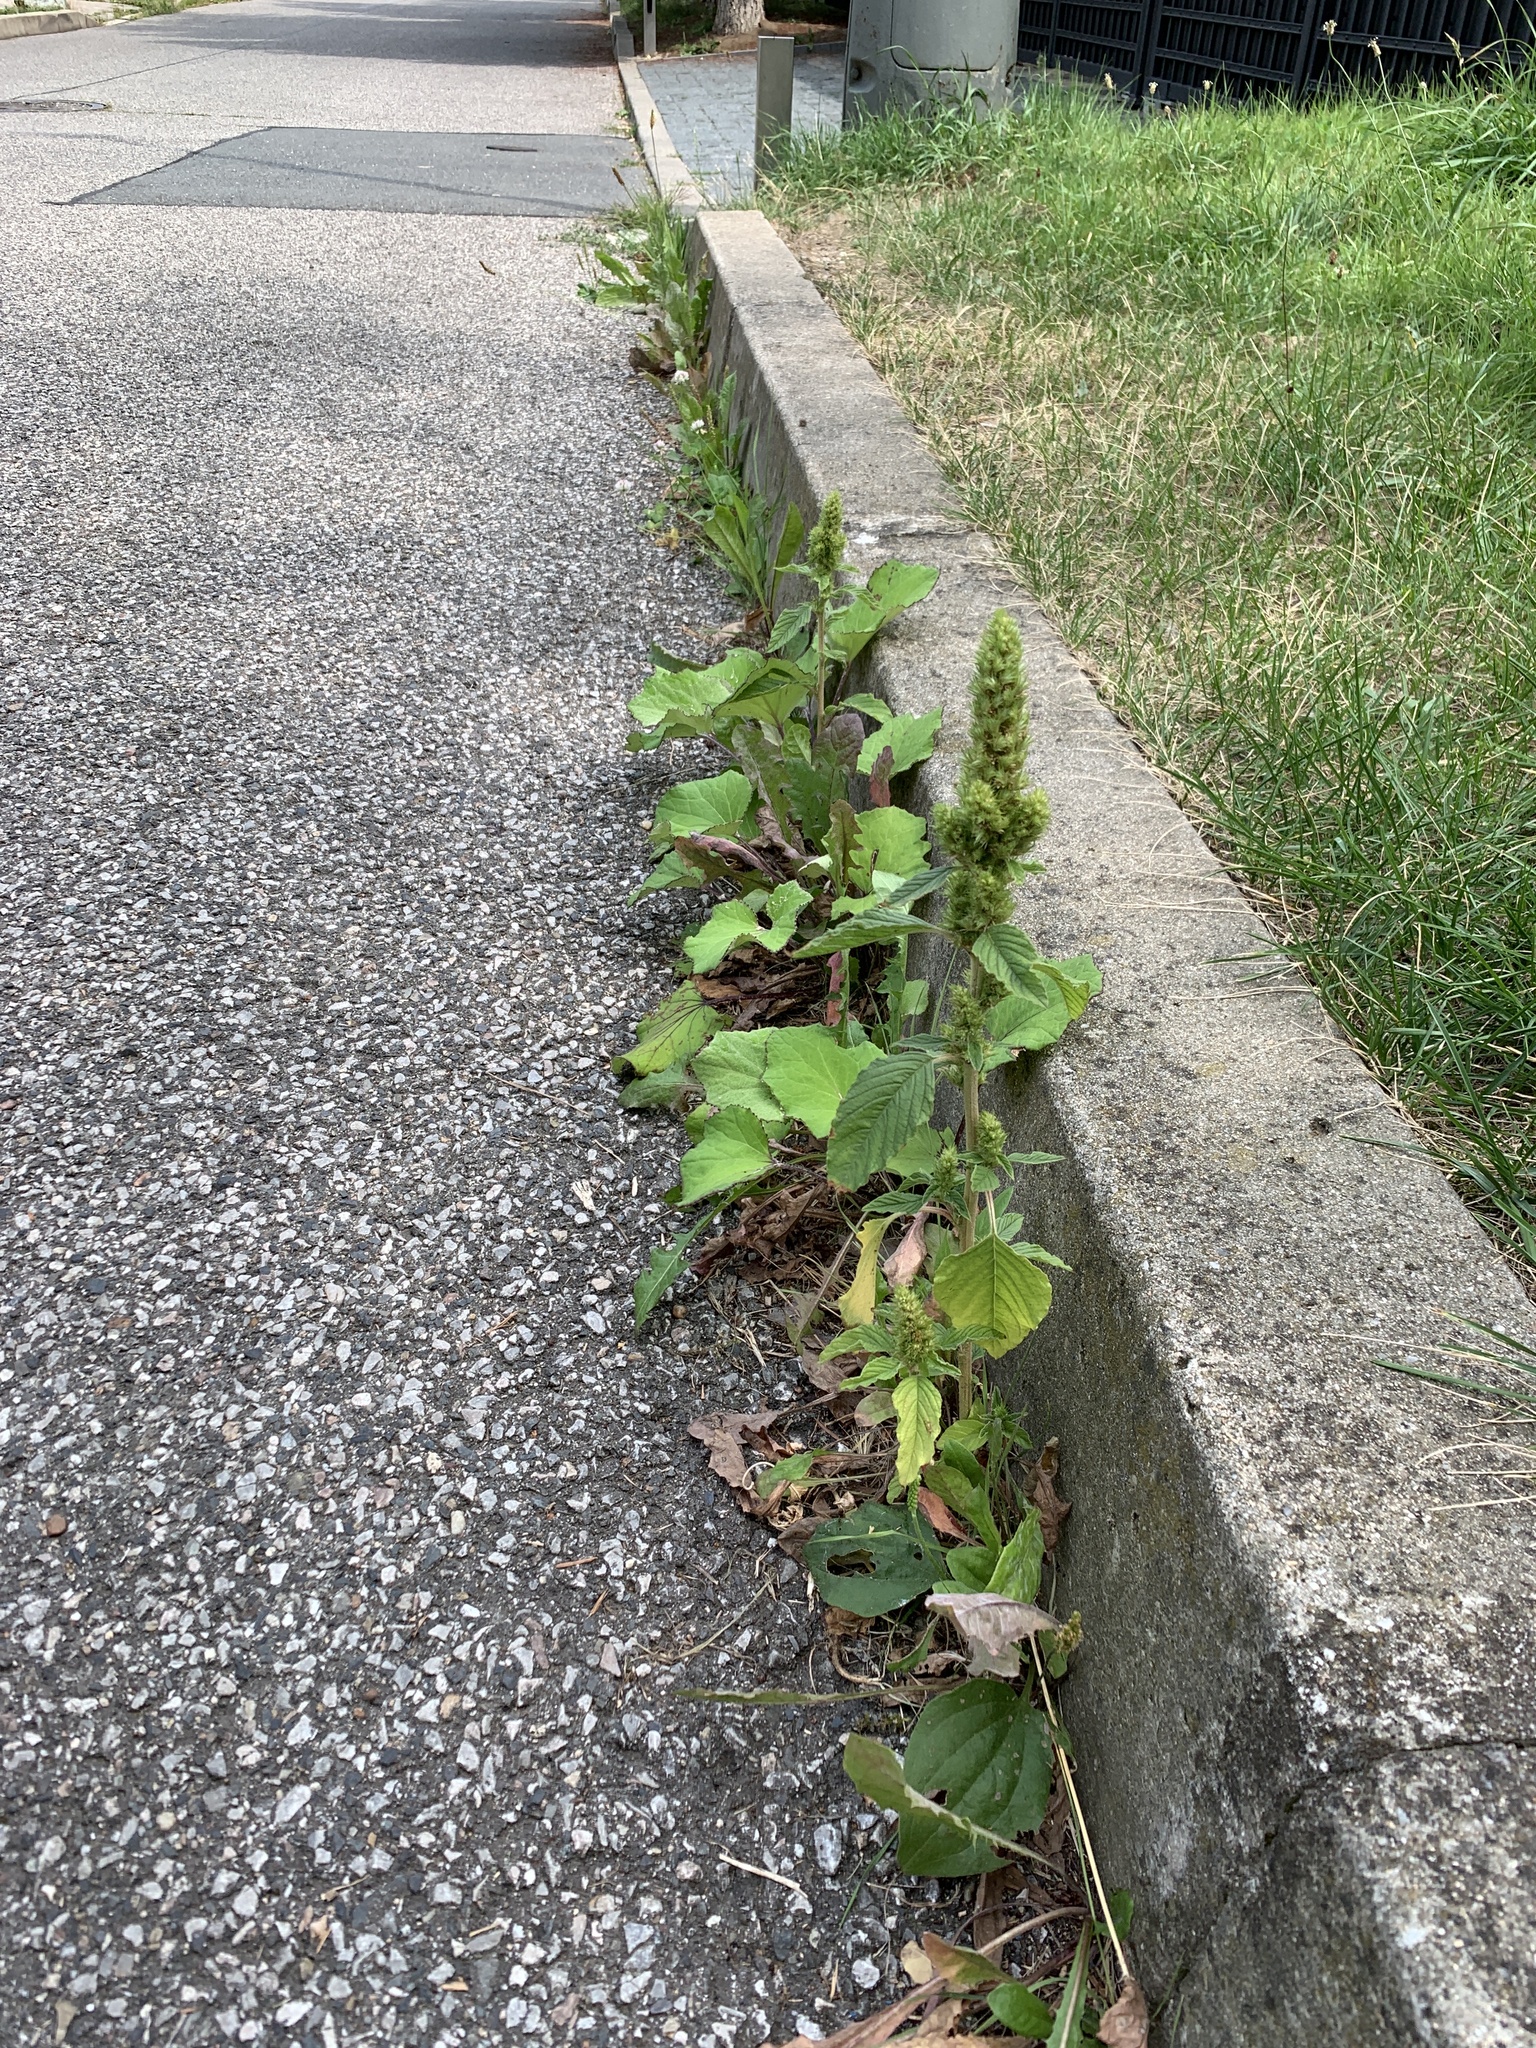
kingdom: Plantae
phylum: Tracheophyta
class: Magnoliopsida
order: Caryophyllales
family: Amaranthaceae
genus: Amaranthus
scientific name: Amaranthus retroflexus
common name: Redroot amaranth
